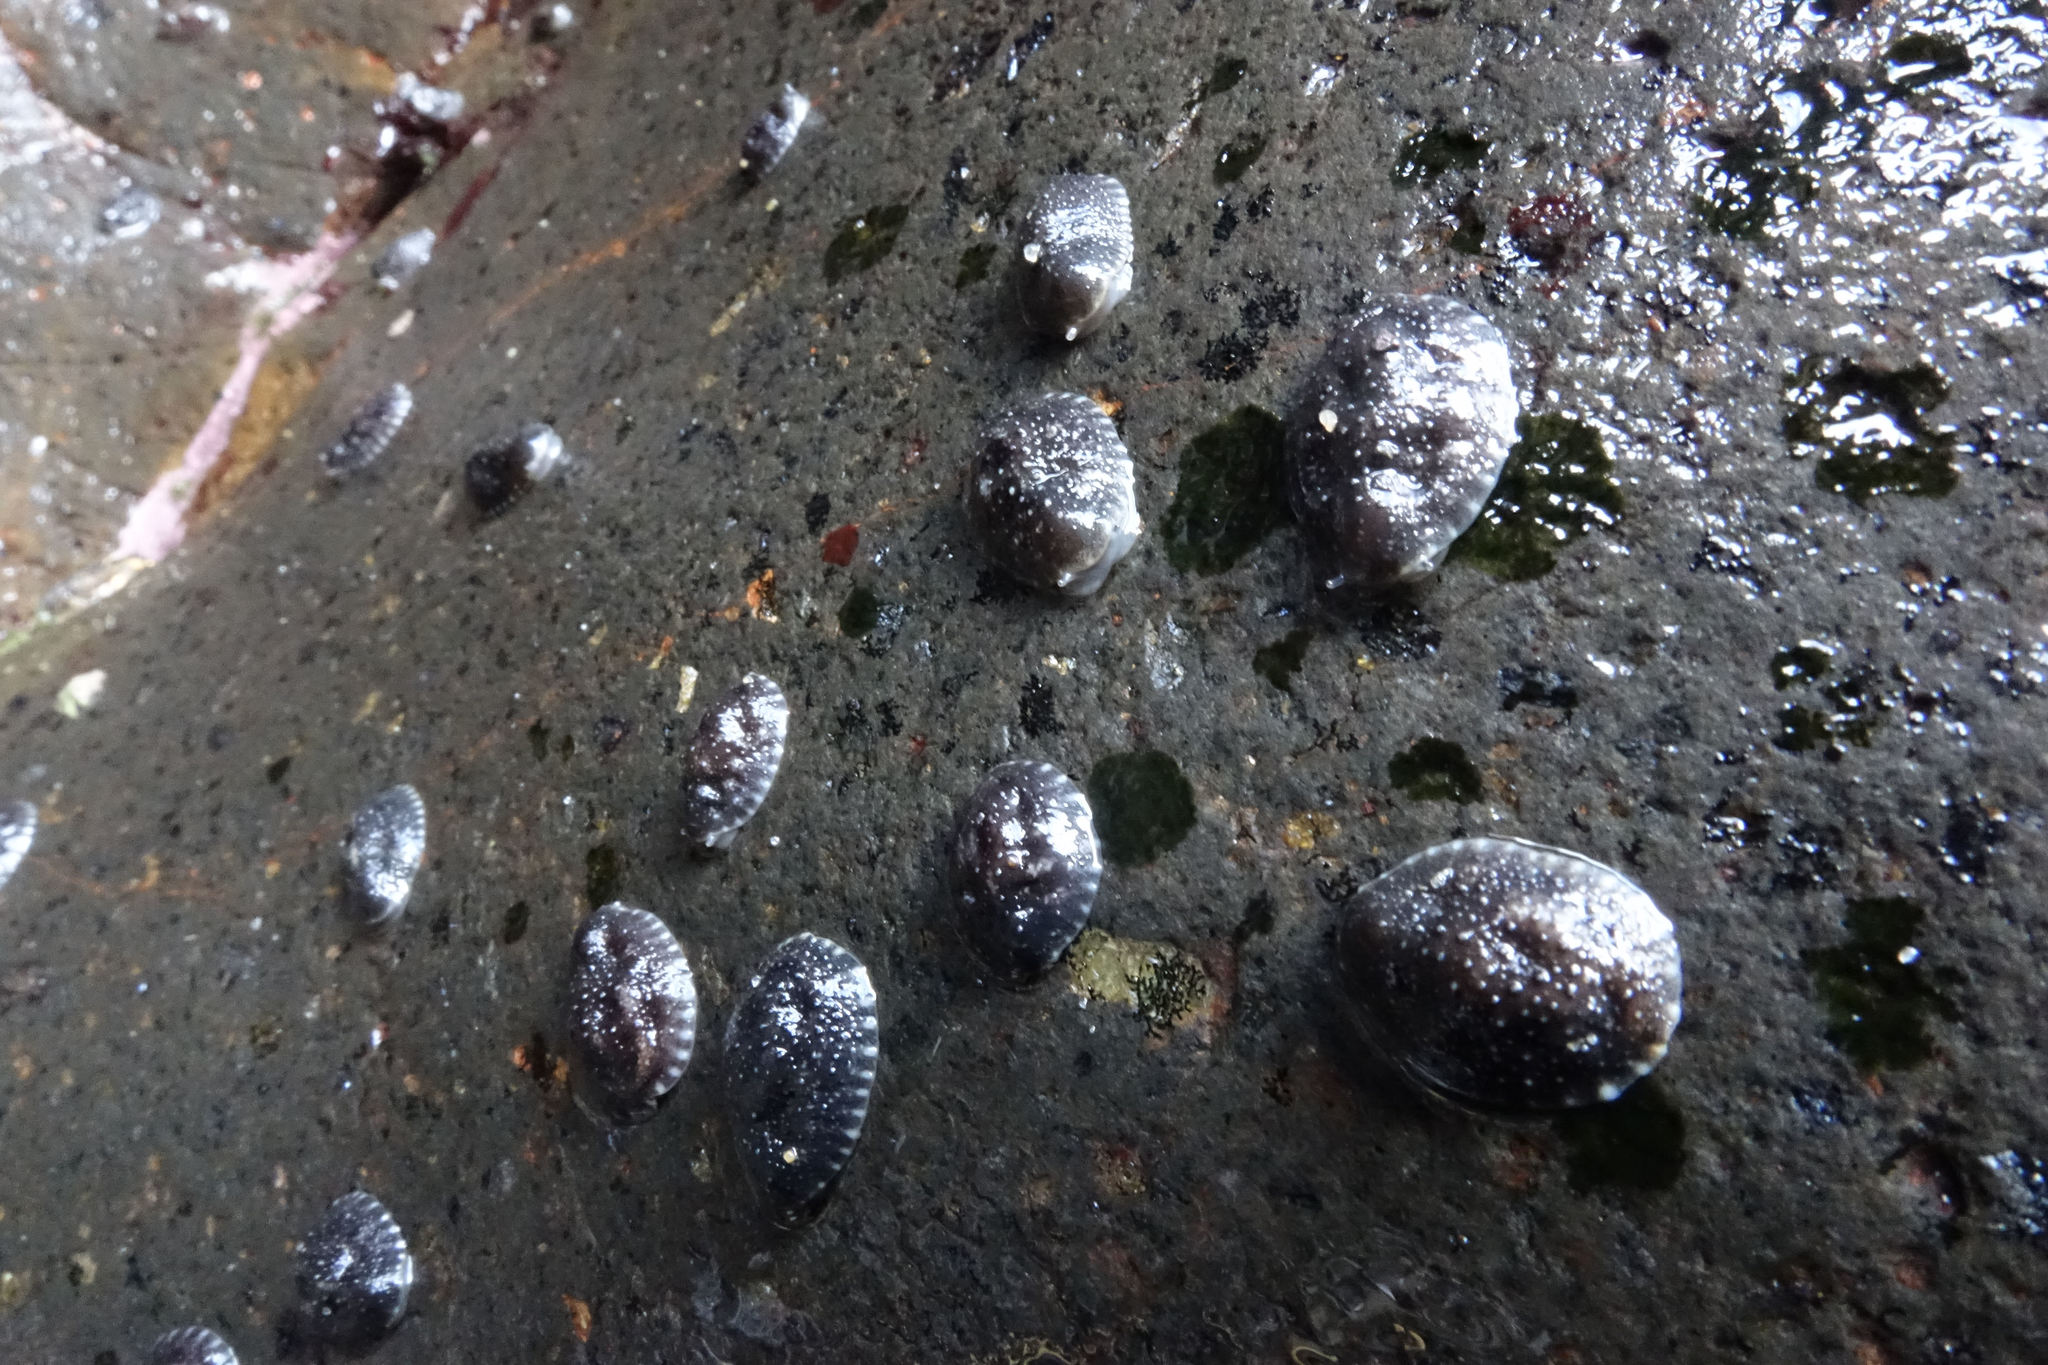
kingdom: Animalia
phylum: Mollusca
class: Gastropoda
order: Systellommatophora
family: Onchidiidae
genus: Onchidella
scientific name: Onchidella nigricans
